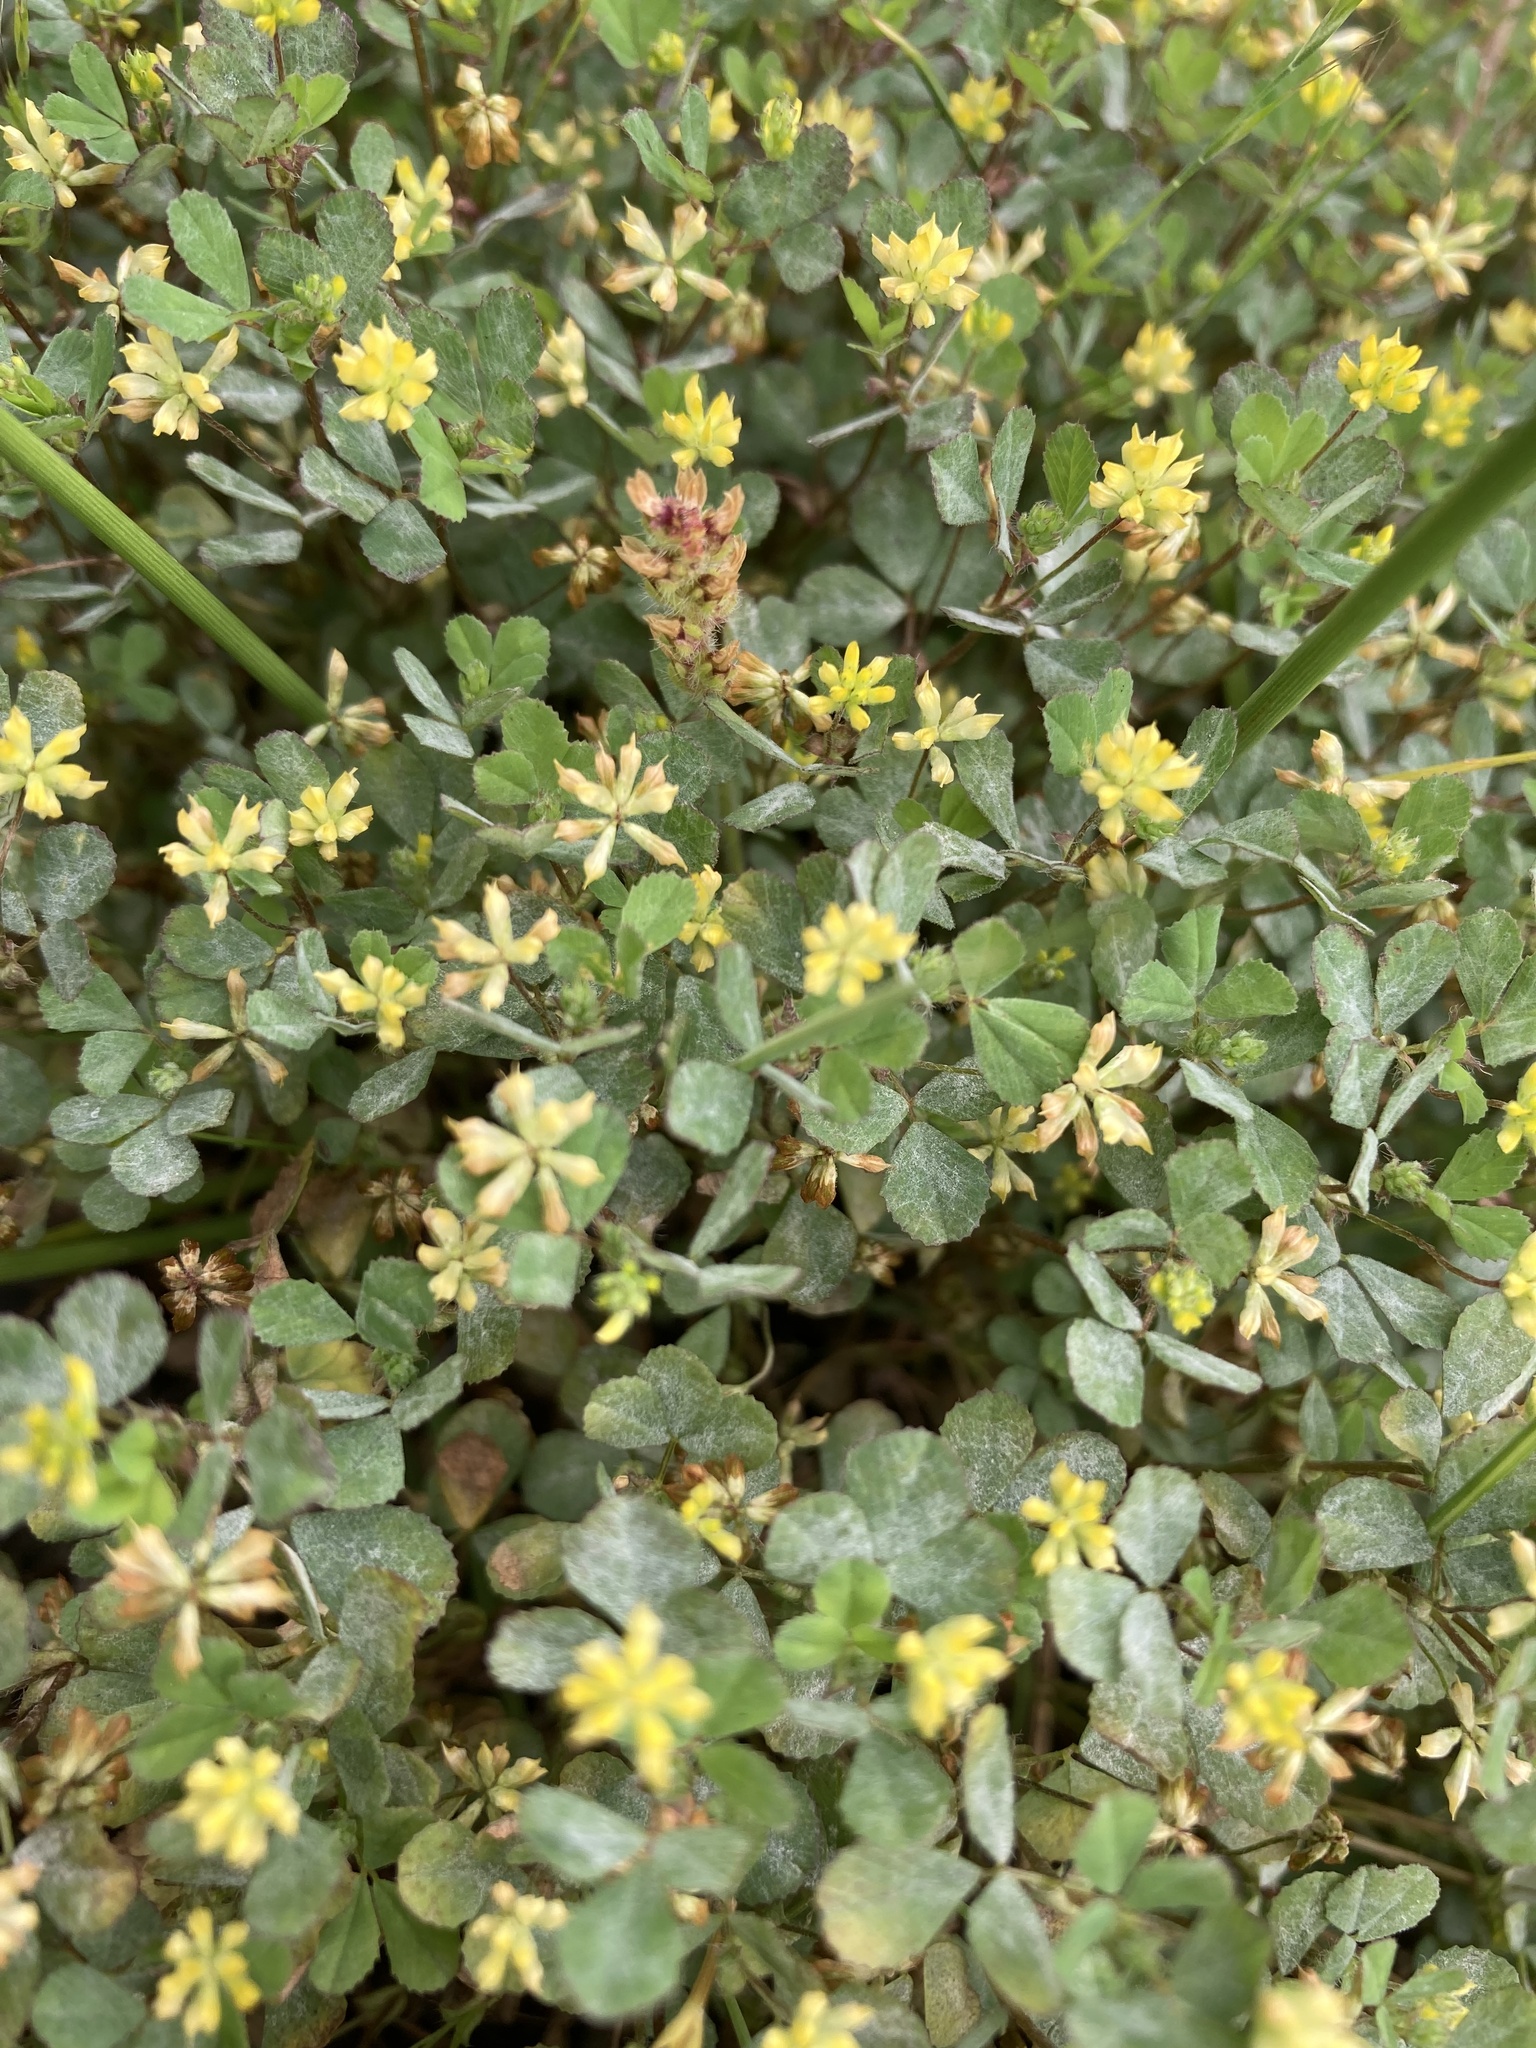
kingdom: Plantae
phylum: Tracheophyta
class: Magnoliopsida
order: Fabales
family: Fabaceae
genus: Trifolium
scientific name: Trifolium dubium
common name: Suckling clover
